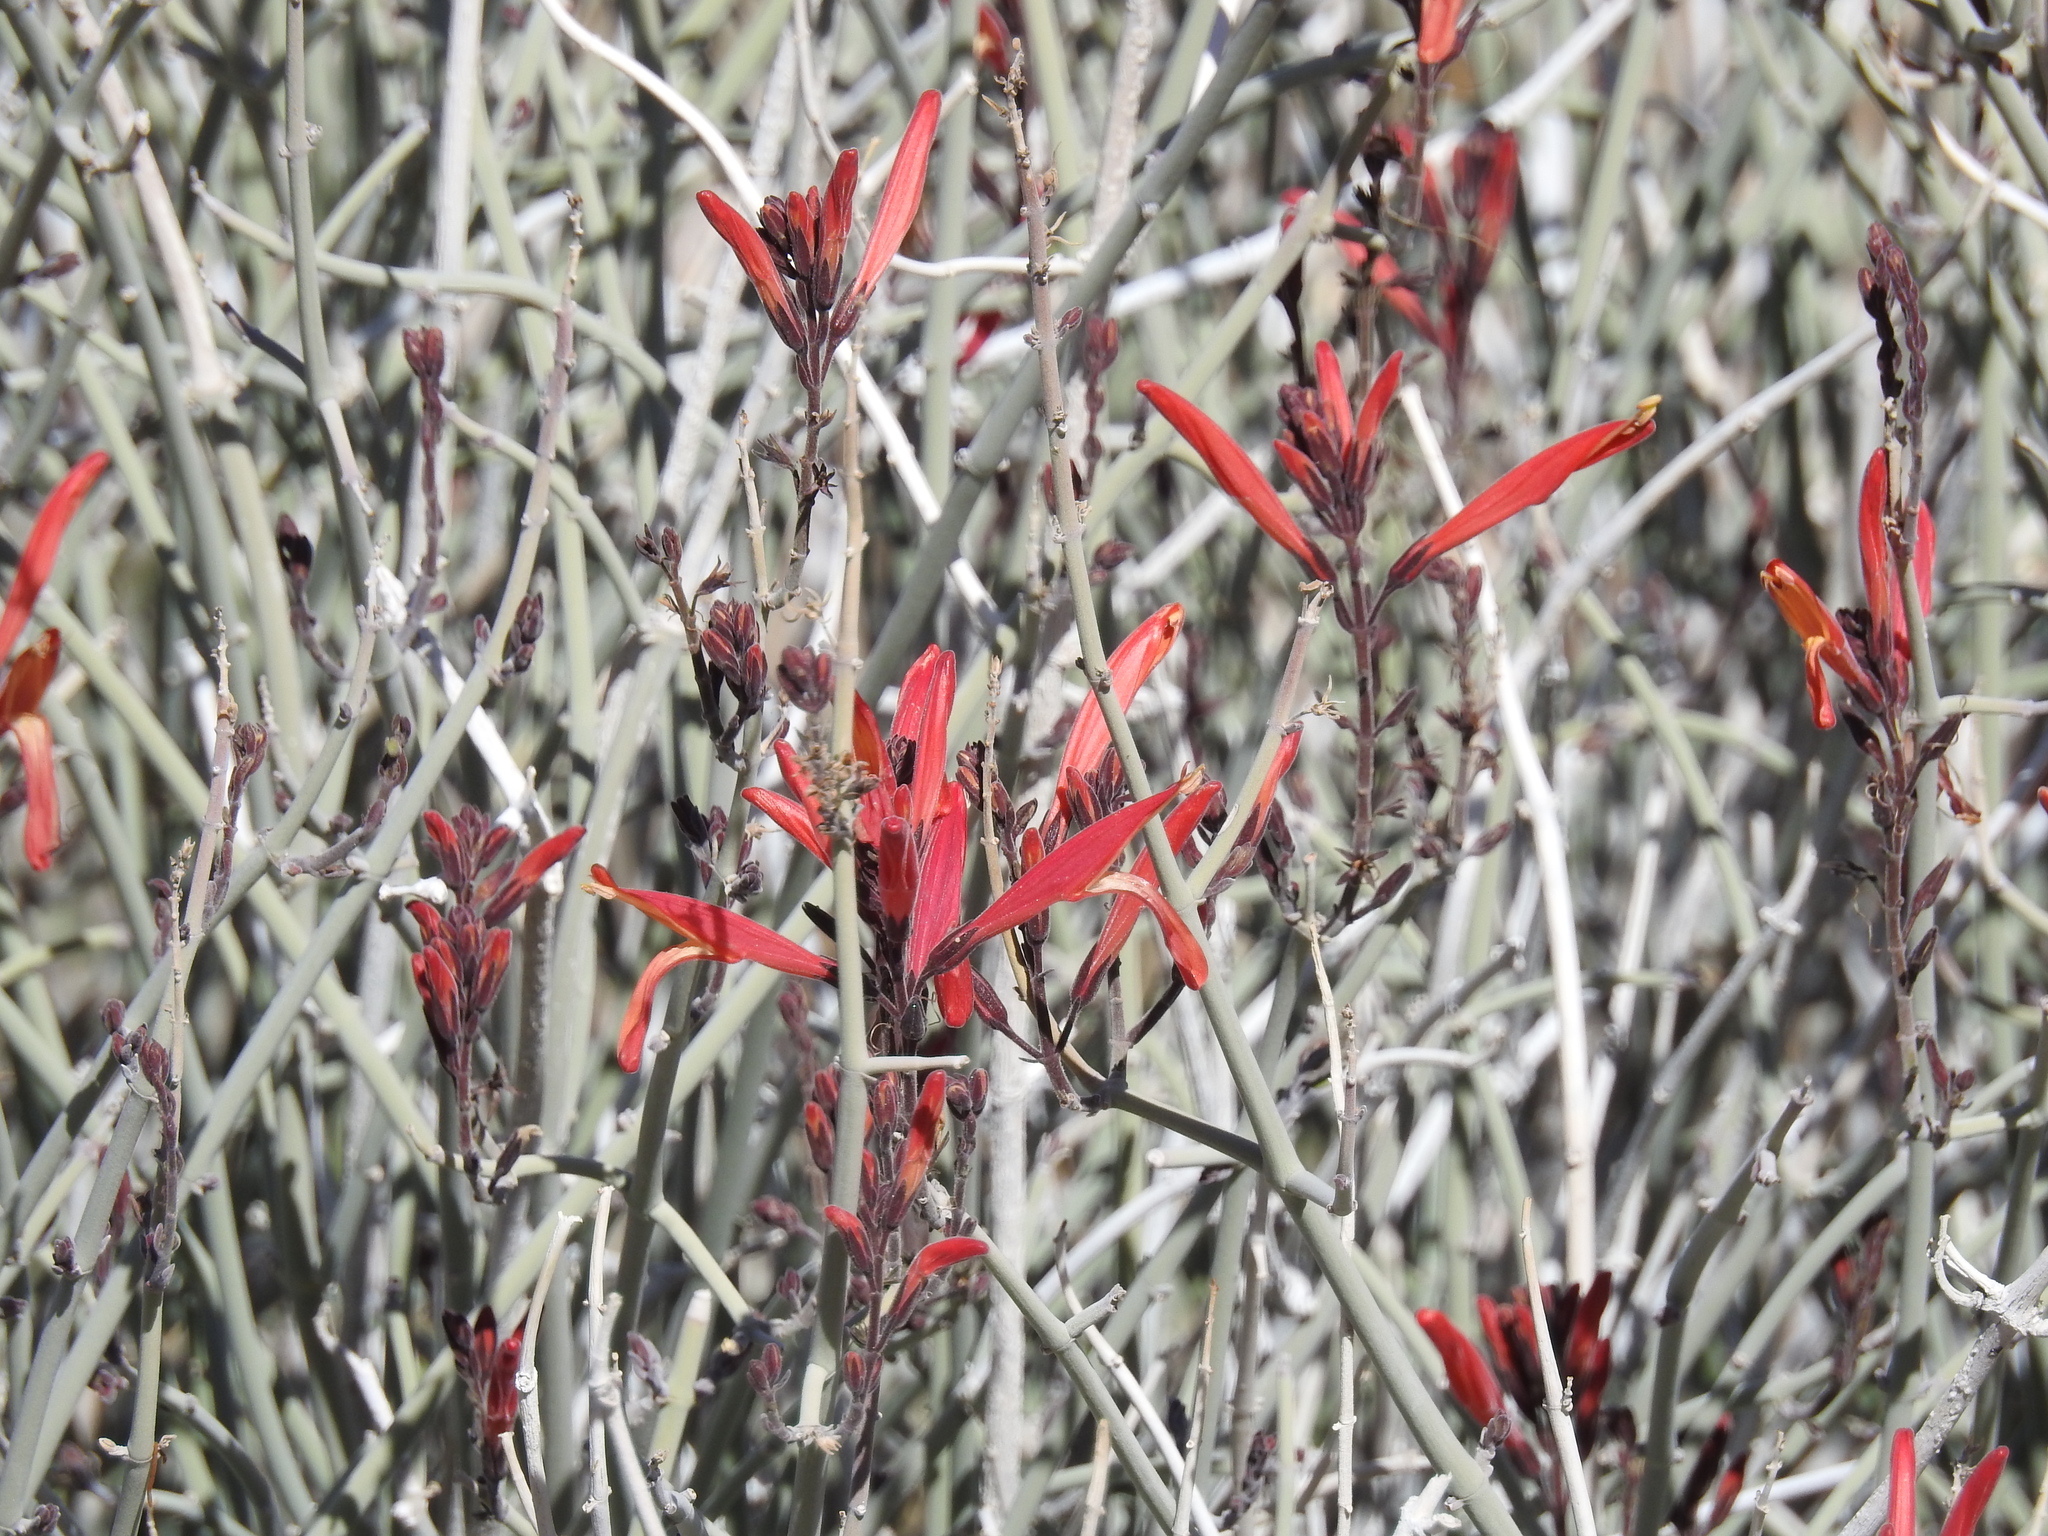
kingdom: Plantae
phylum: Tracheophyta
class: Magnoliopsida
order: Lamiales
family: Acanthaceae
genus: Justicia
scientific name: Justicia californica
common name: Chuparosa-honeysuckle
